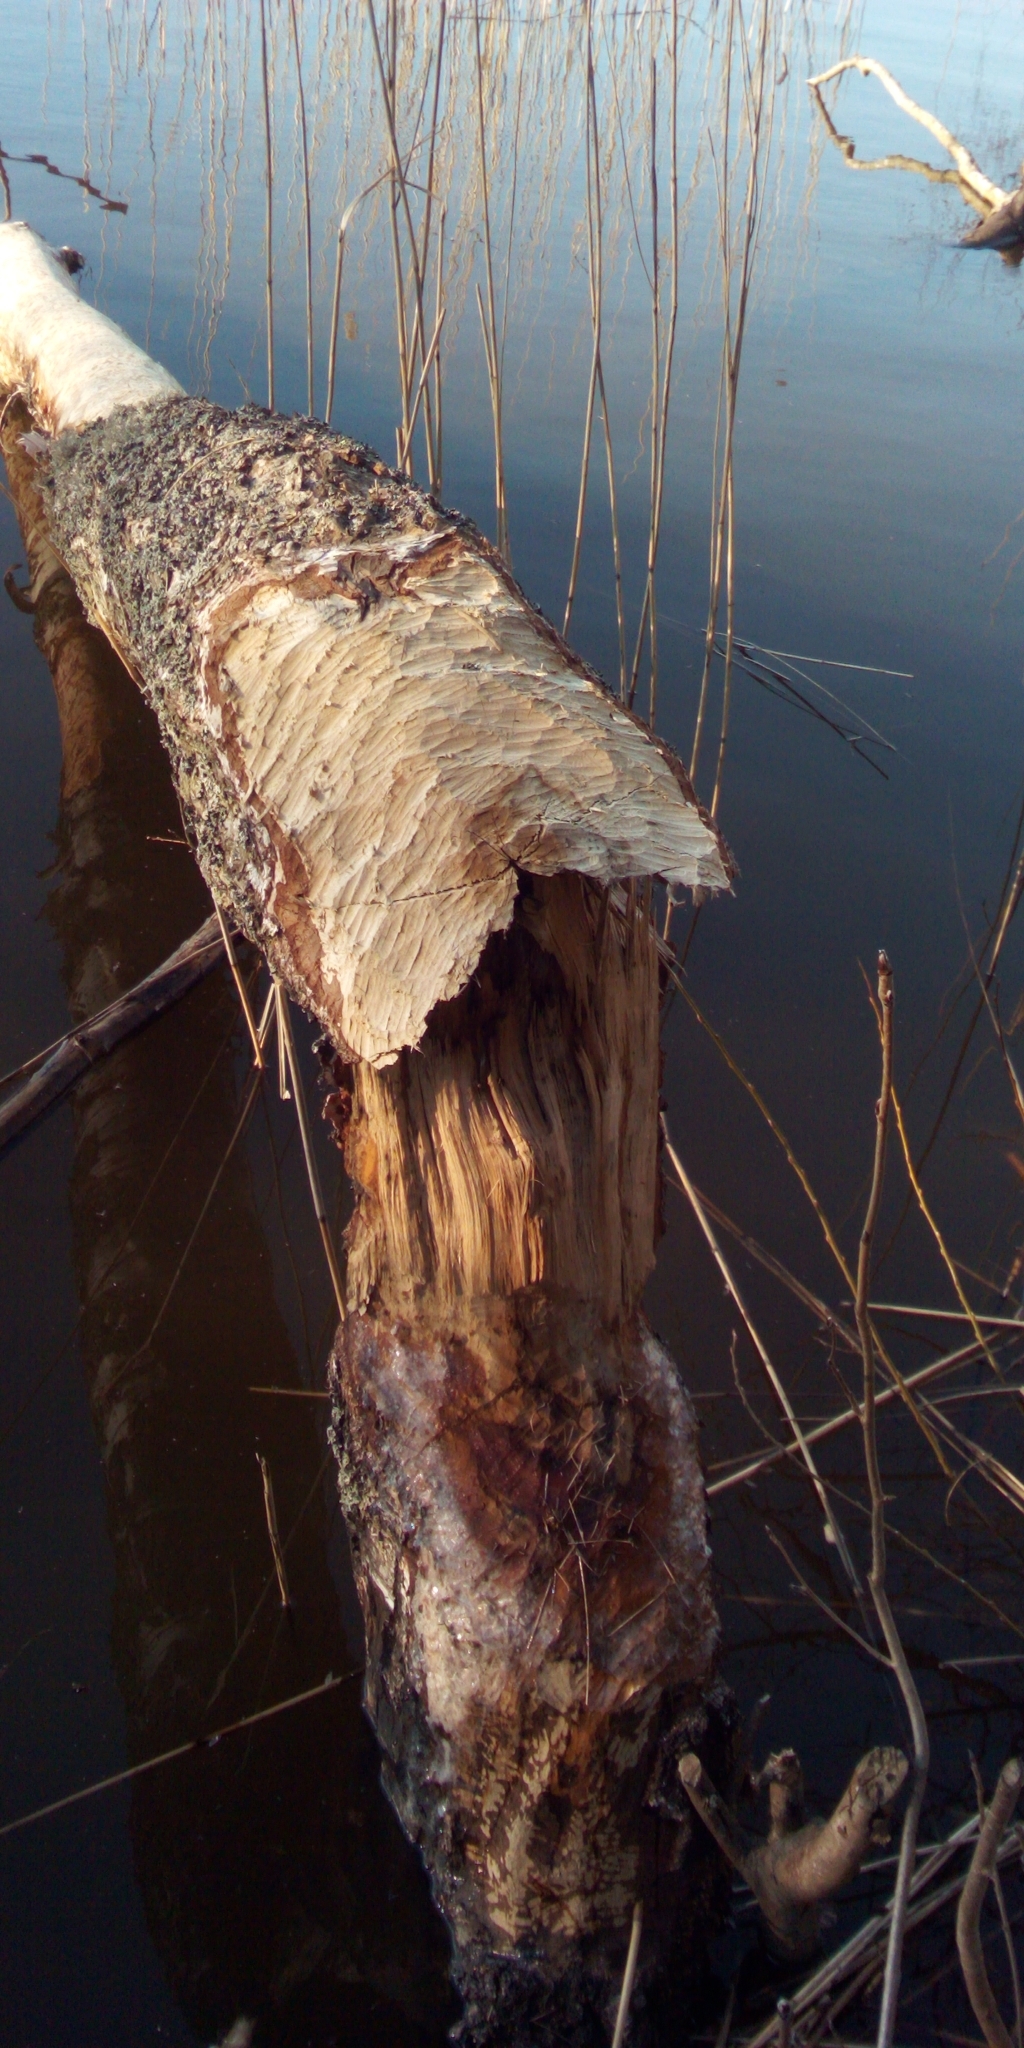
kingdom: Animalia
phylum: Chordata
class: Mammalia
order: Rodentia
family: Castoridae
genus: Castor
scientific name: Castor fiber
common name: Eurasian beaver
